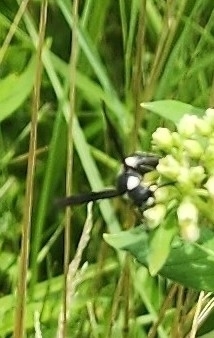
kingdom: Animalia
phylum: Arthropoda
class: Insecta
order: Hymenoptera
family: Eumenidae
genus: Monobia
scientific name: Monobia quadridens
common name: Four-toothed mason wasp
